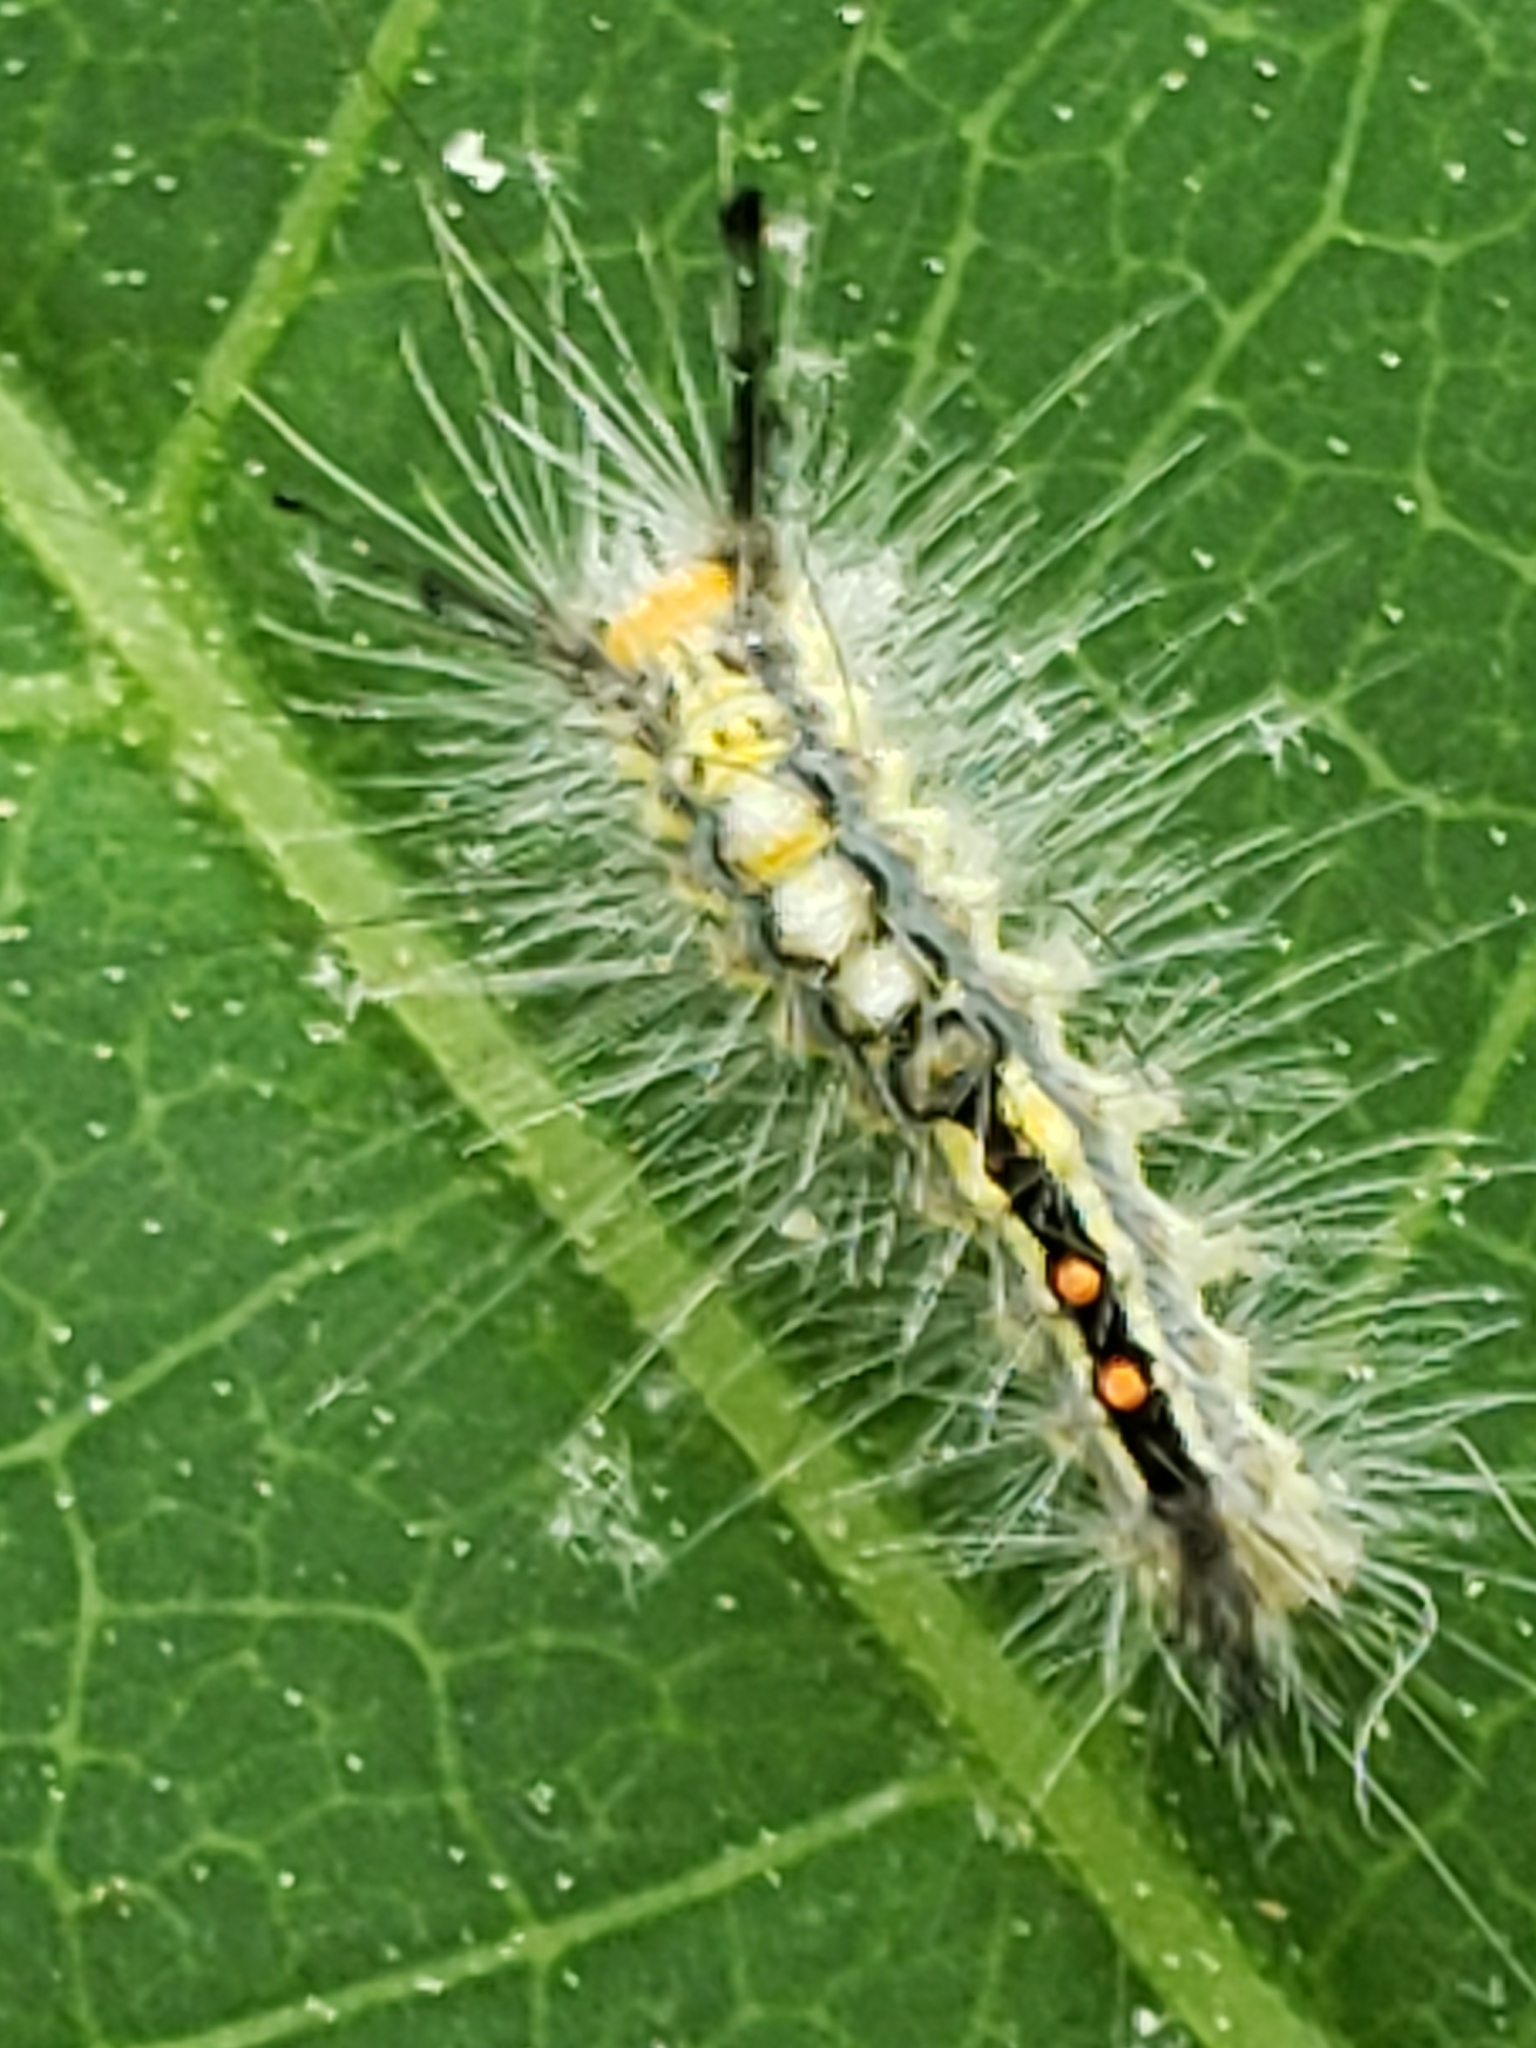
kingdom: Animalia
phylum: Arthropoda
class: Insecta
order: Lepidoptera
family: Erebidae
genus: Orgyia
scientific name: Orgyia leucostigma
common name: White-marked tussock moth
